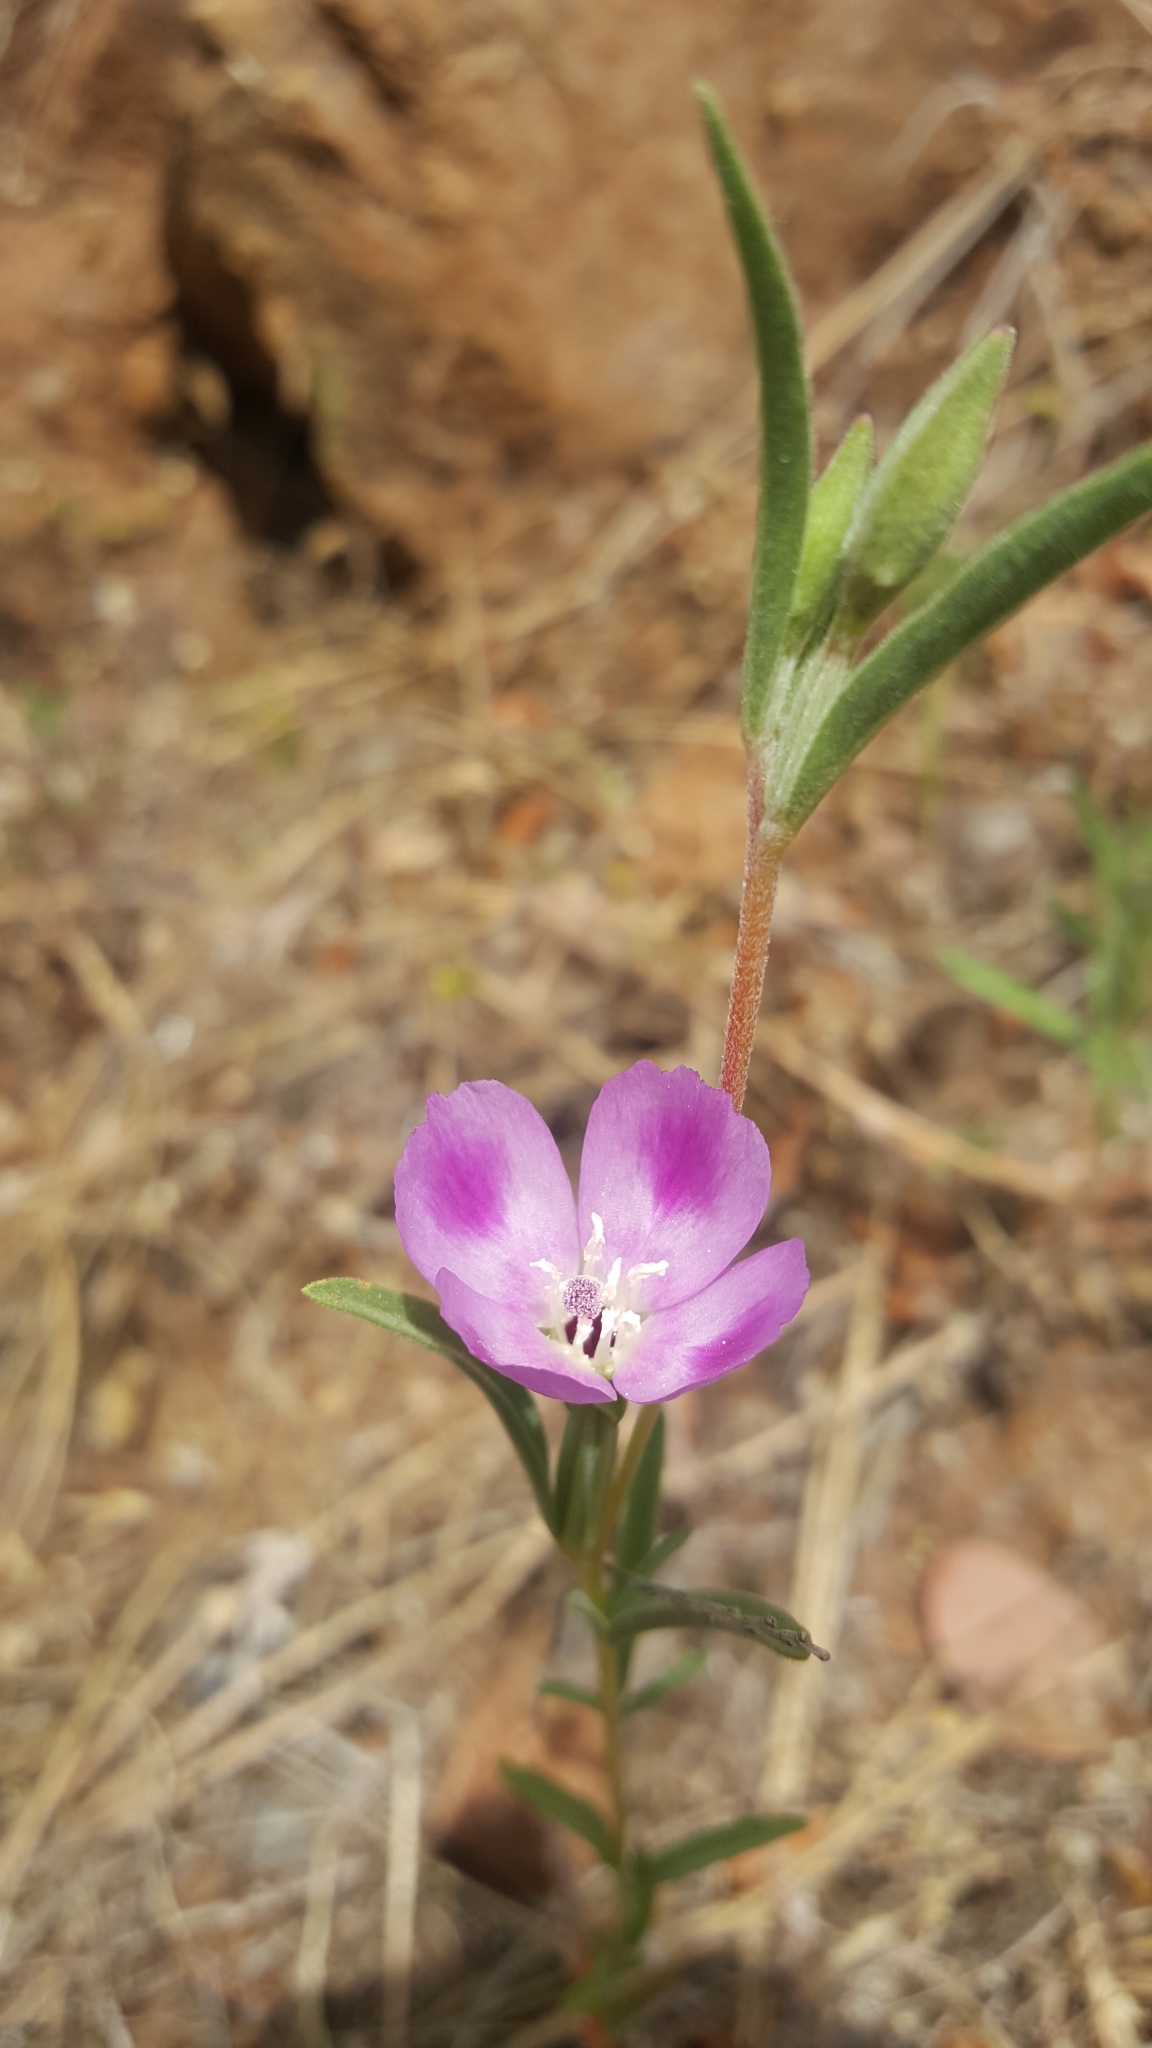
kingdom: Plantae
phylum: Tracheophyta
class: Magnoliopsida
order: Myrtales
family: Onagraceae
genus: Clarkia
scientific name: Clarkia purpurea
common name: Purple clarkia
